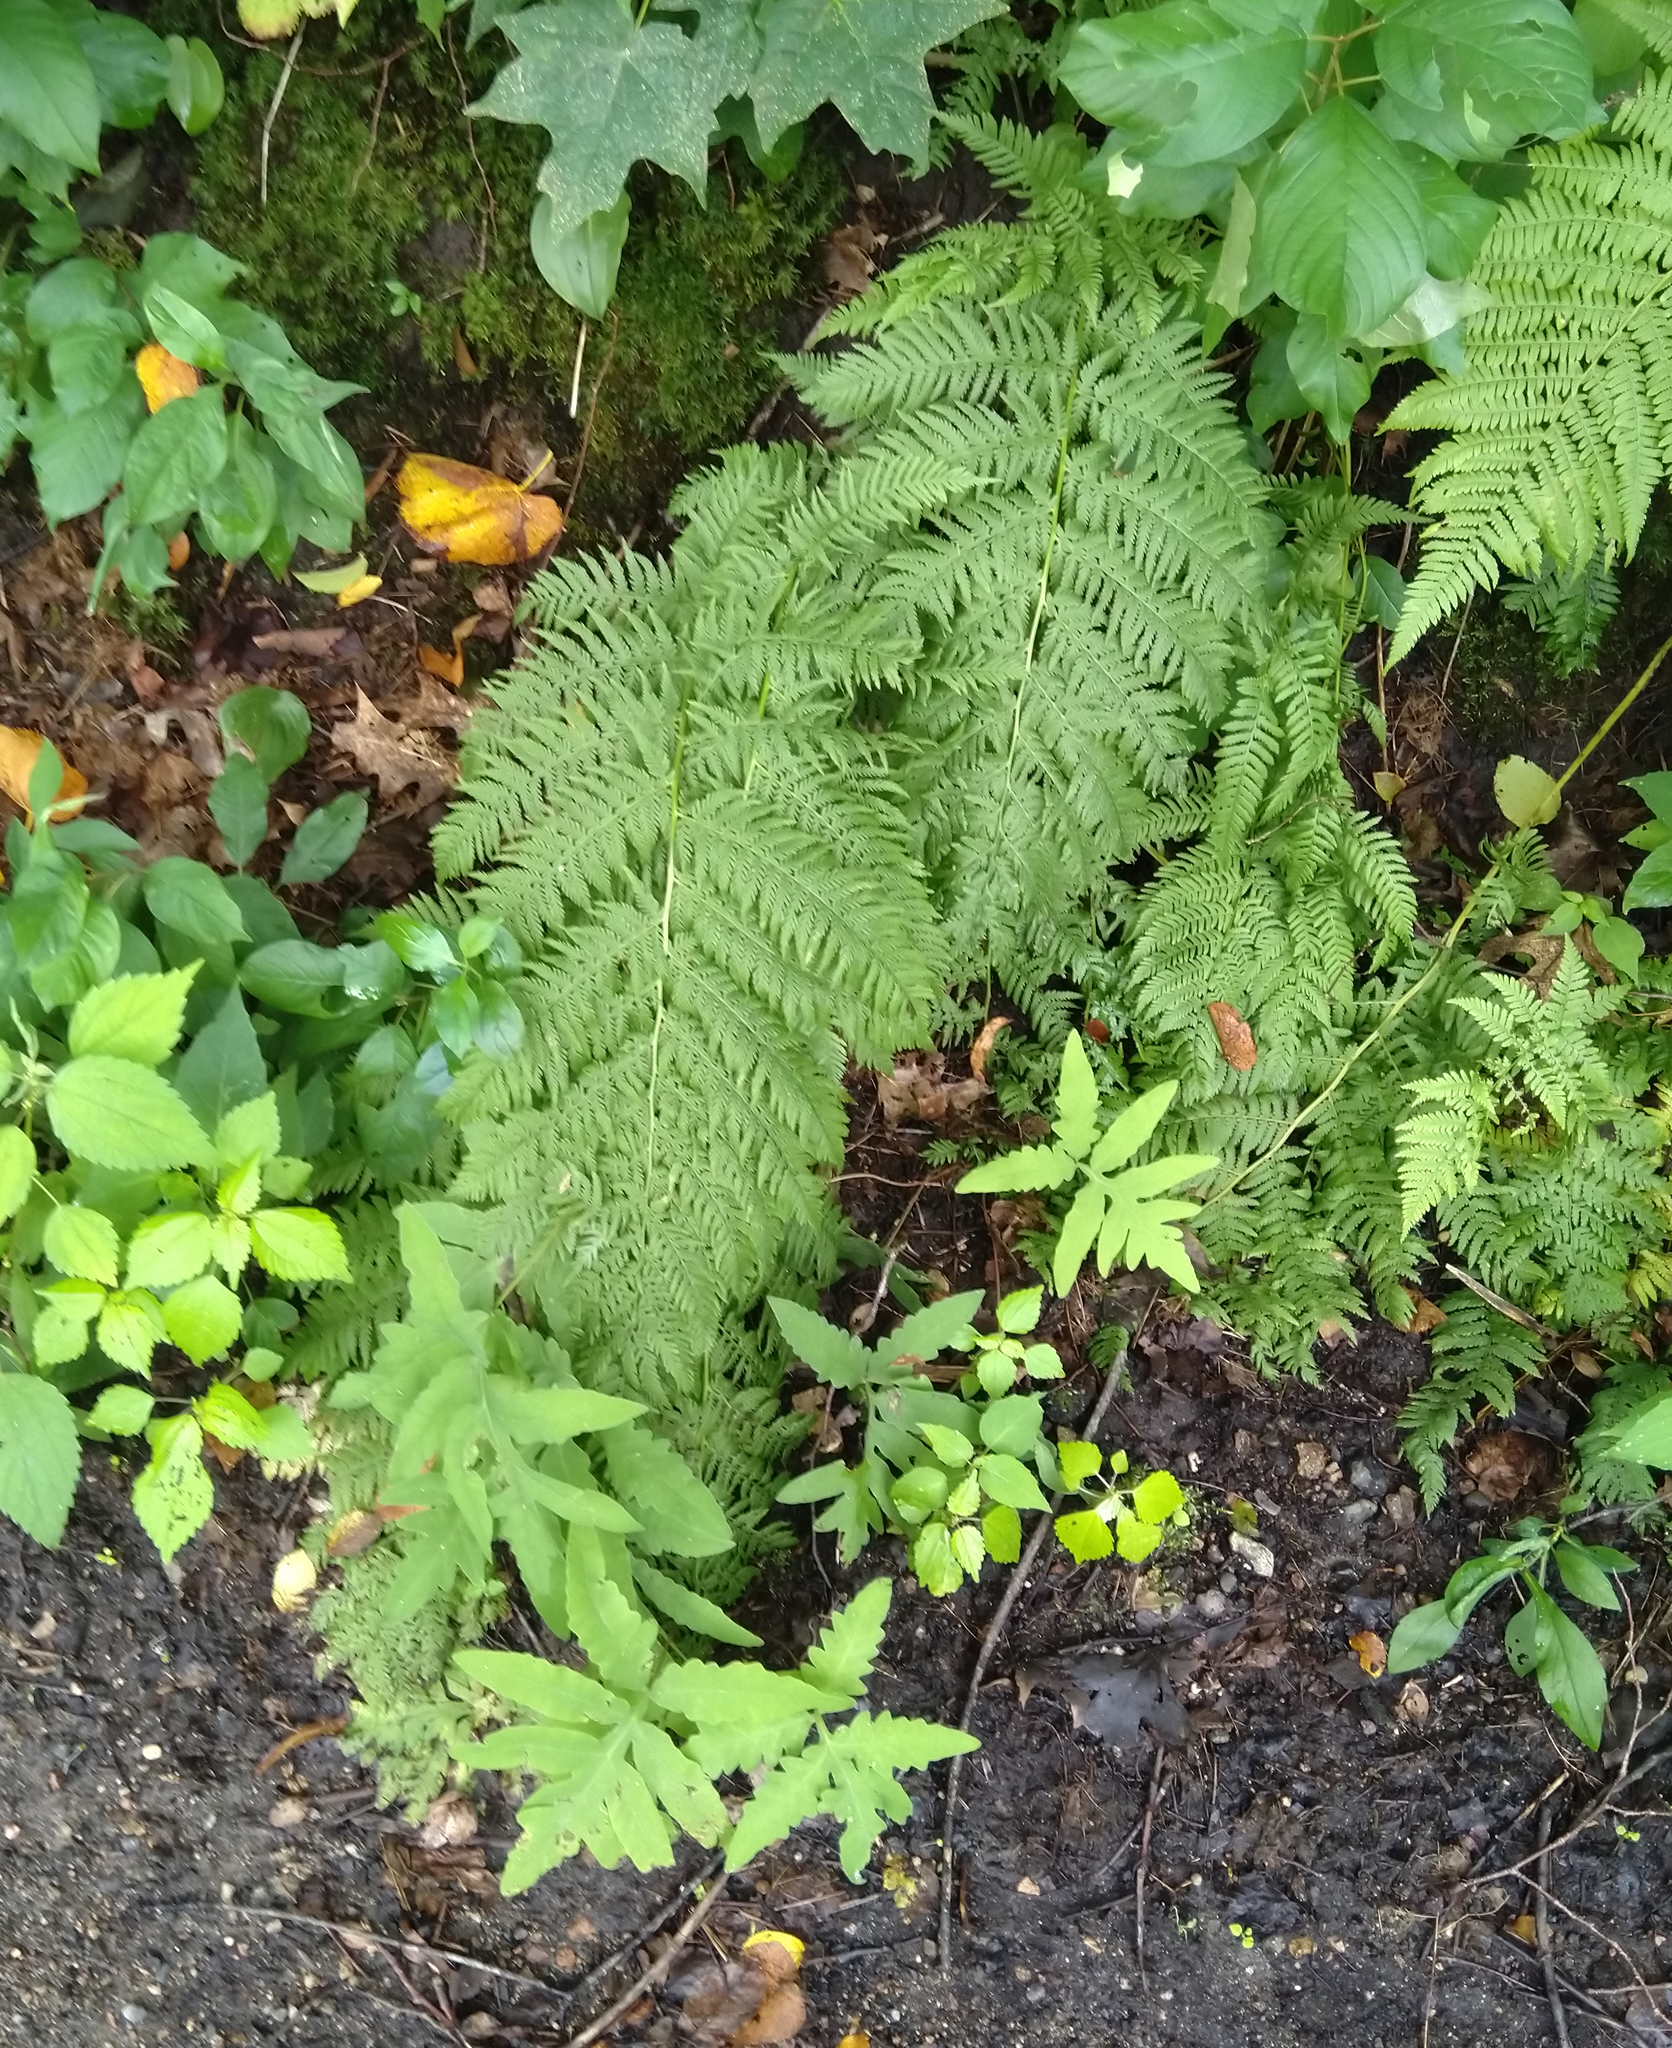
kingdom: Plantae
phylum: Tracheophyta
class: Polypodiopsida
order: Polypodiales
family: Athyriaceae
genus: Athyrium
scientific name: Athyrium angustum
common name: Northern lady fern
